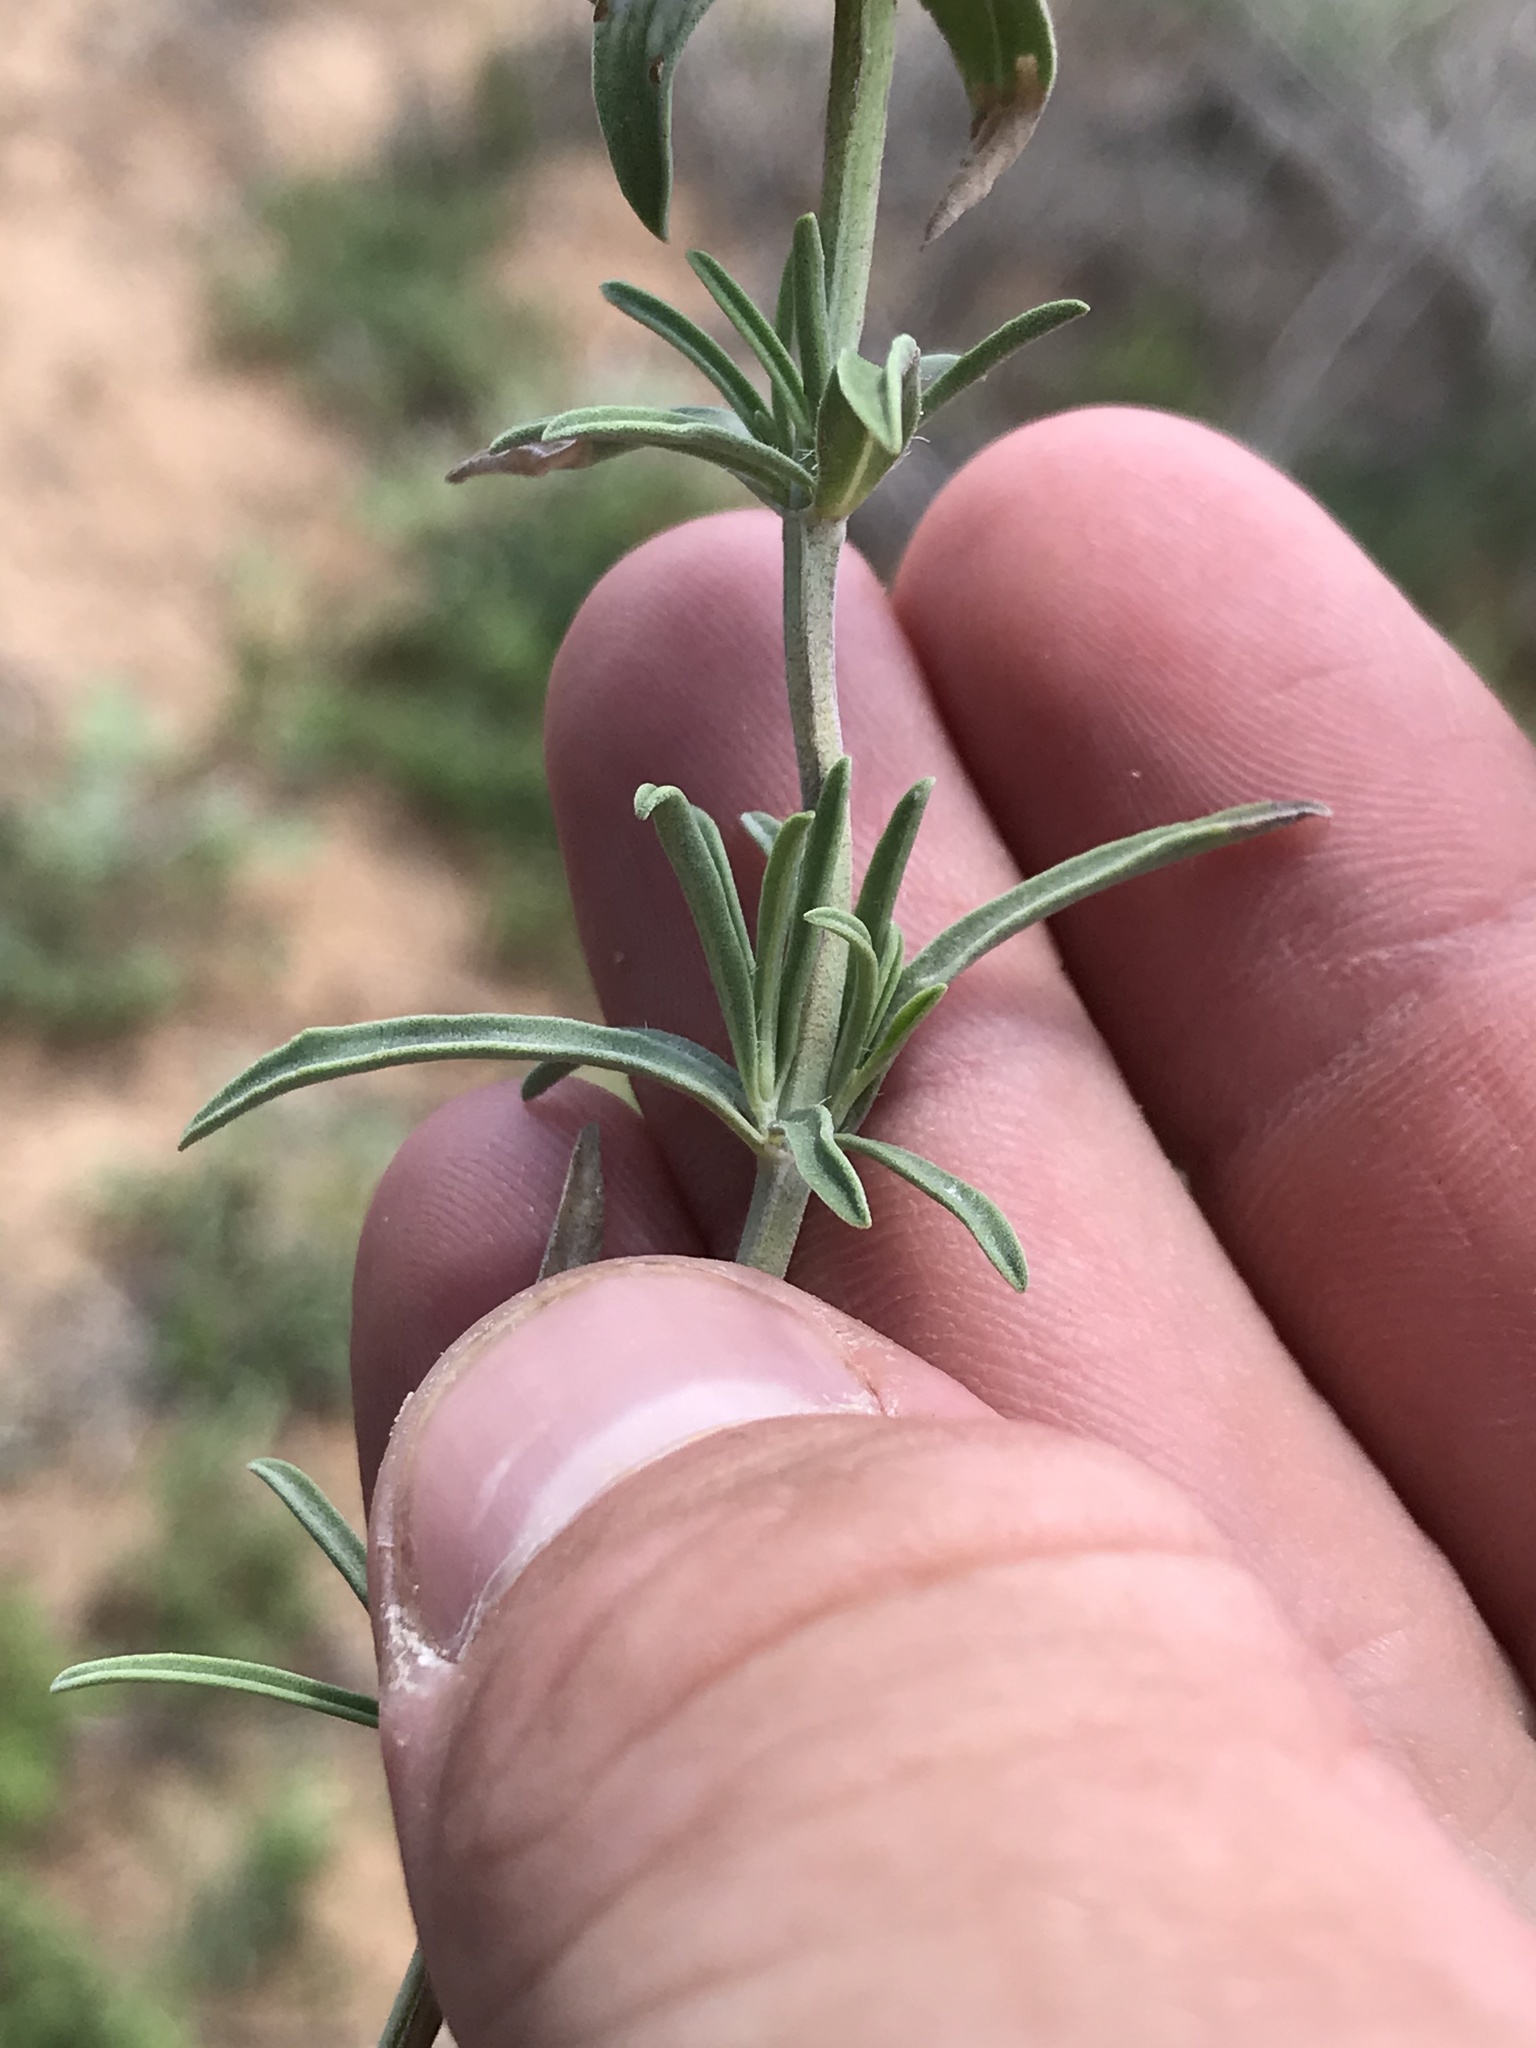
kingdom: Plantae
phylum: Tracheophyta
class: Magnoliopsida
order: Lamiales
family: Lamiaceae
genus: Monarda
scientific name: Monarda fruticulosa
